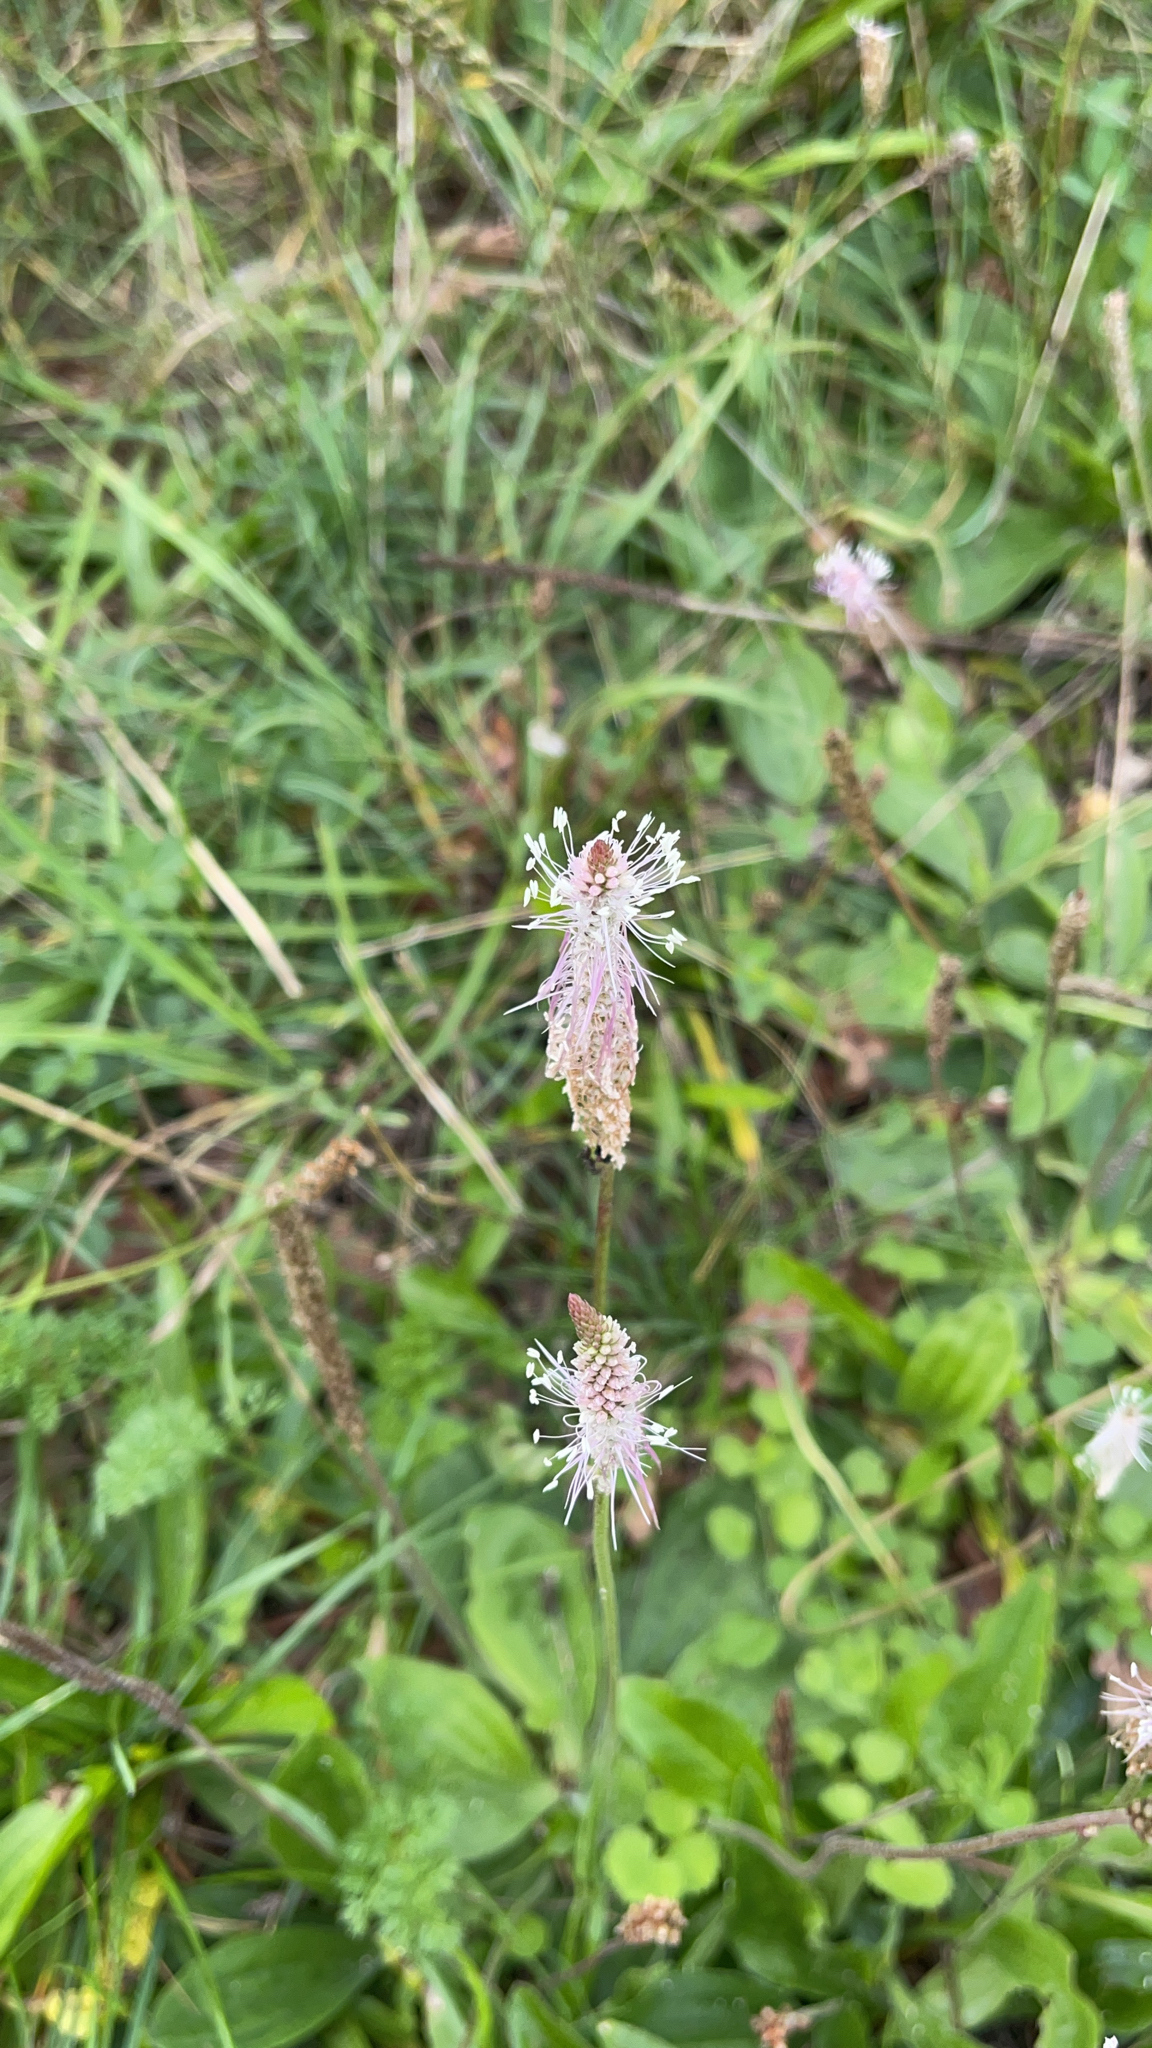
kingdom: Plantae
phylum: Tracheophyta
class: Magnoliopsida
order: Lamiales
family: Plantaginaceae
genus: Plantago
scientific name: Plantago media
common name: Hoary plantain
